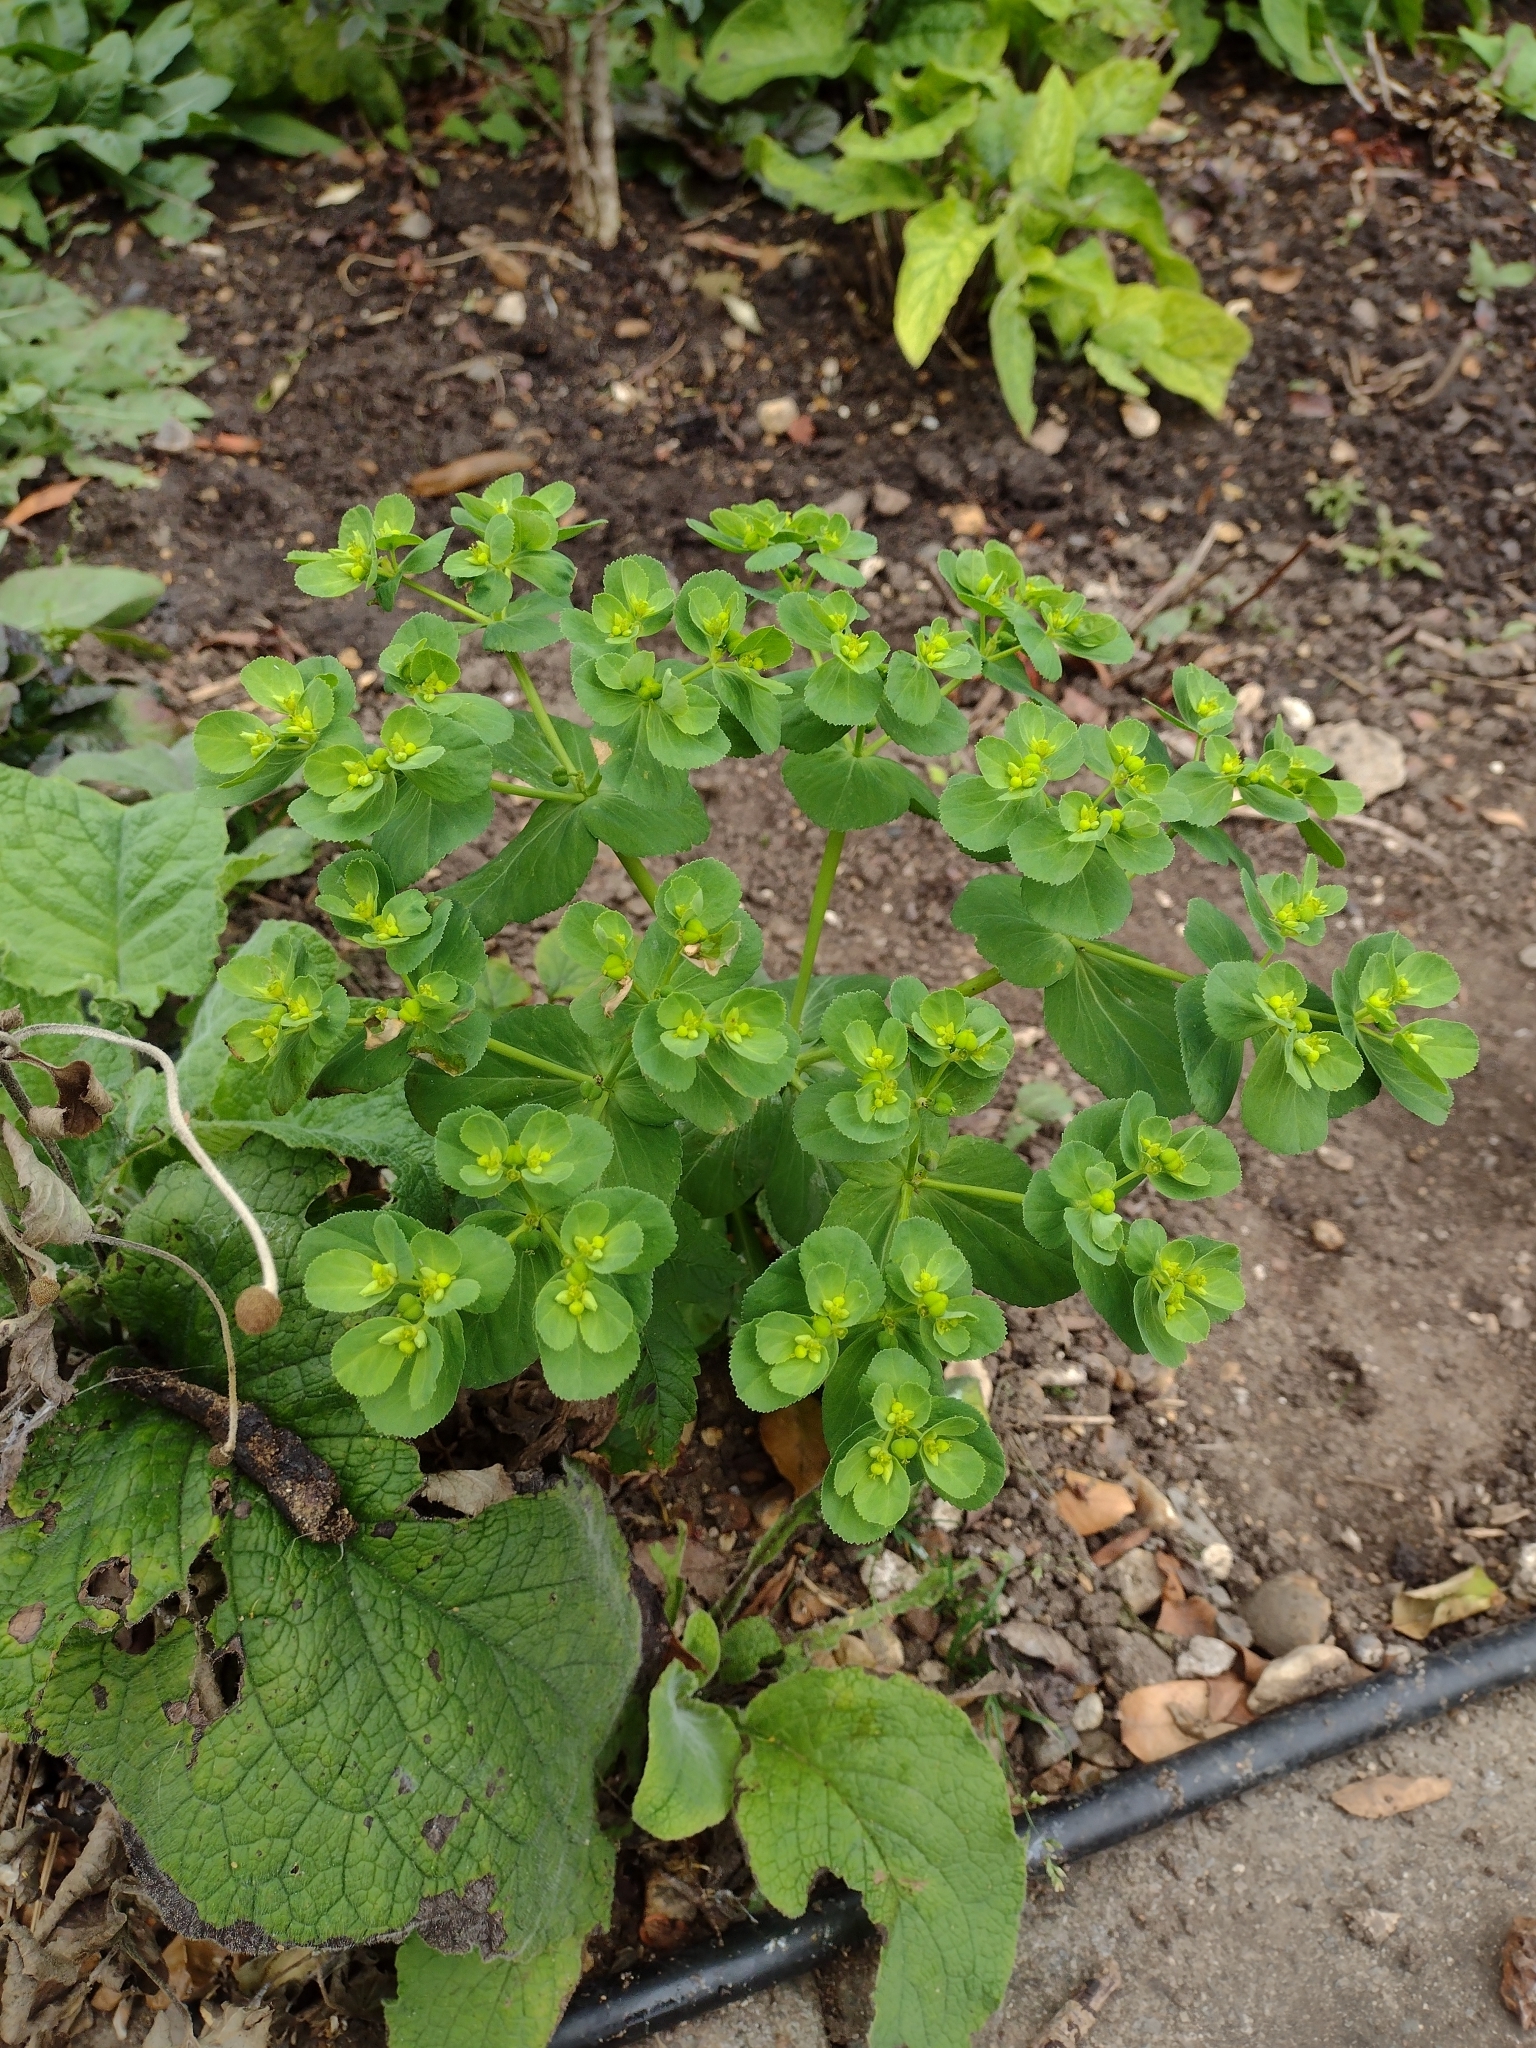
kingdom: Plantae
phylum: Tracheophyta
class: Magnoliopsida
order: Malpighiales
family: Euphorbiaceae
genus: Euphorbia
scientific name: Euphorbia helioscopia
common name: Sun spurge
